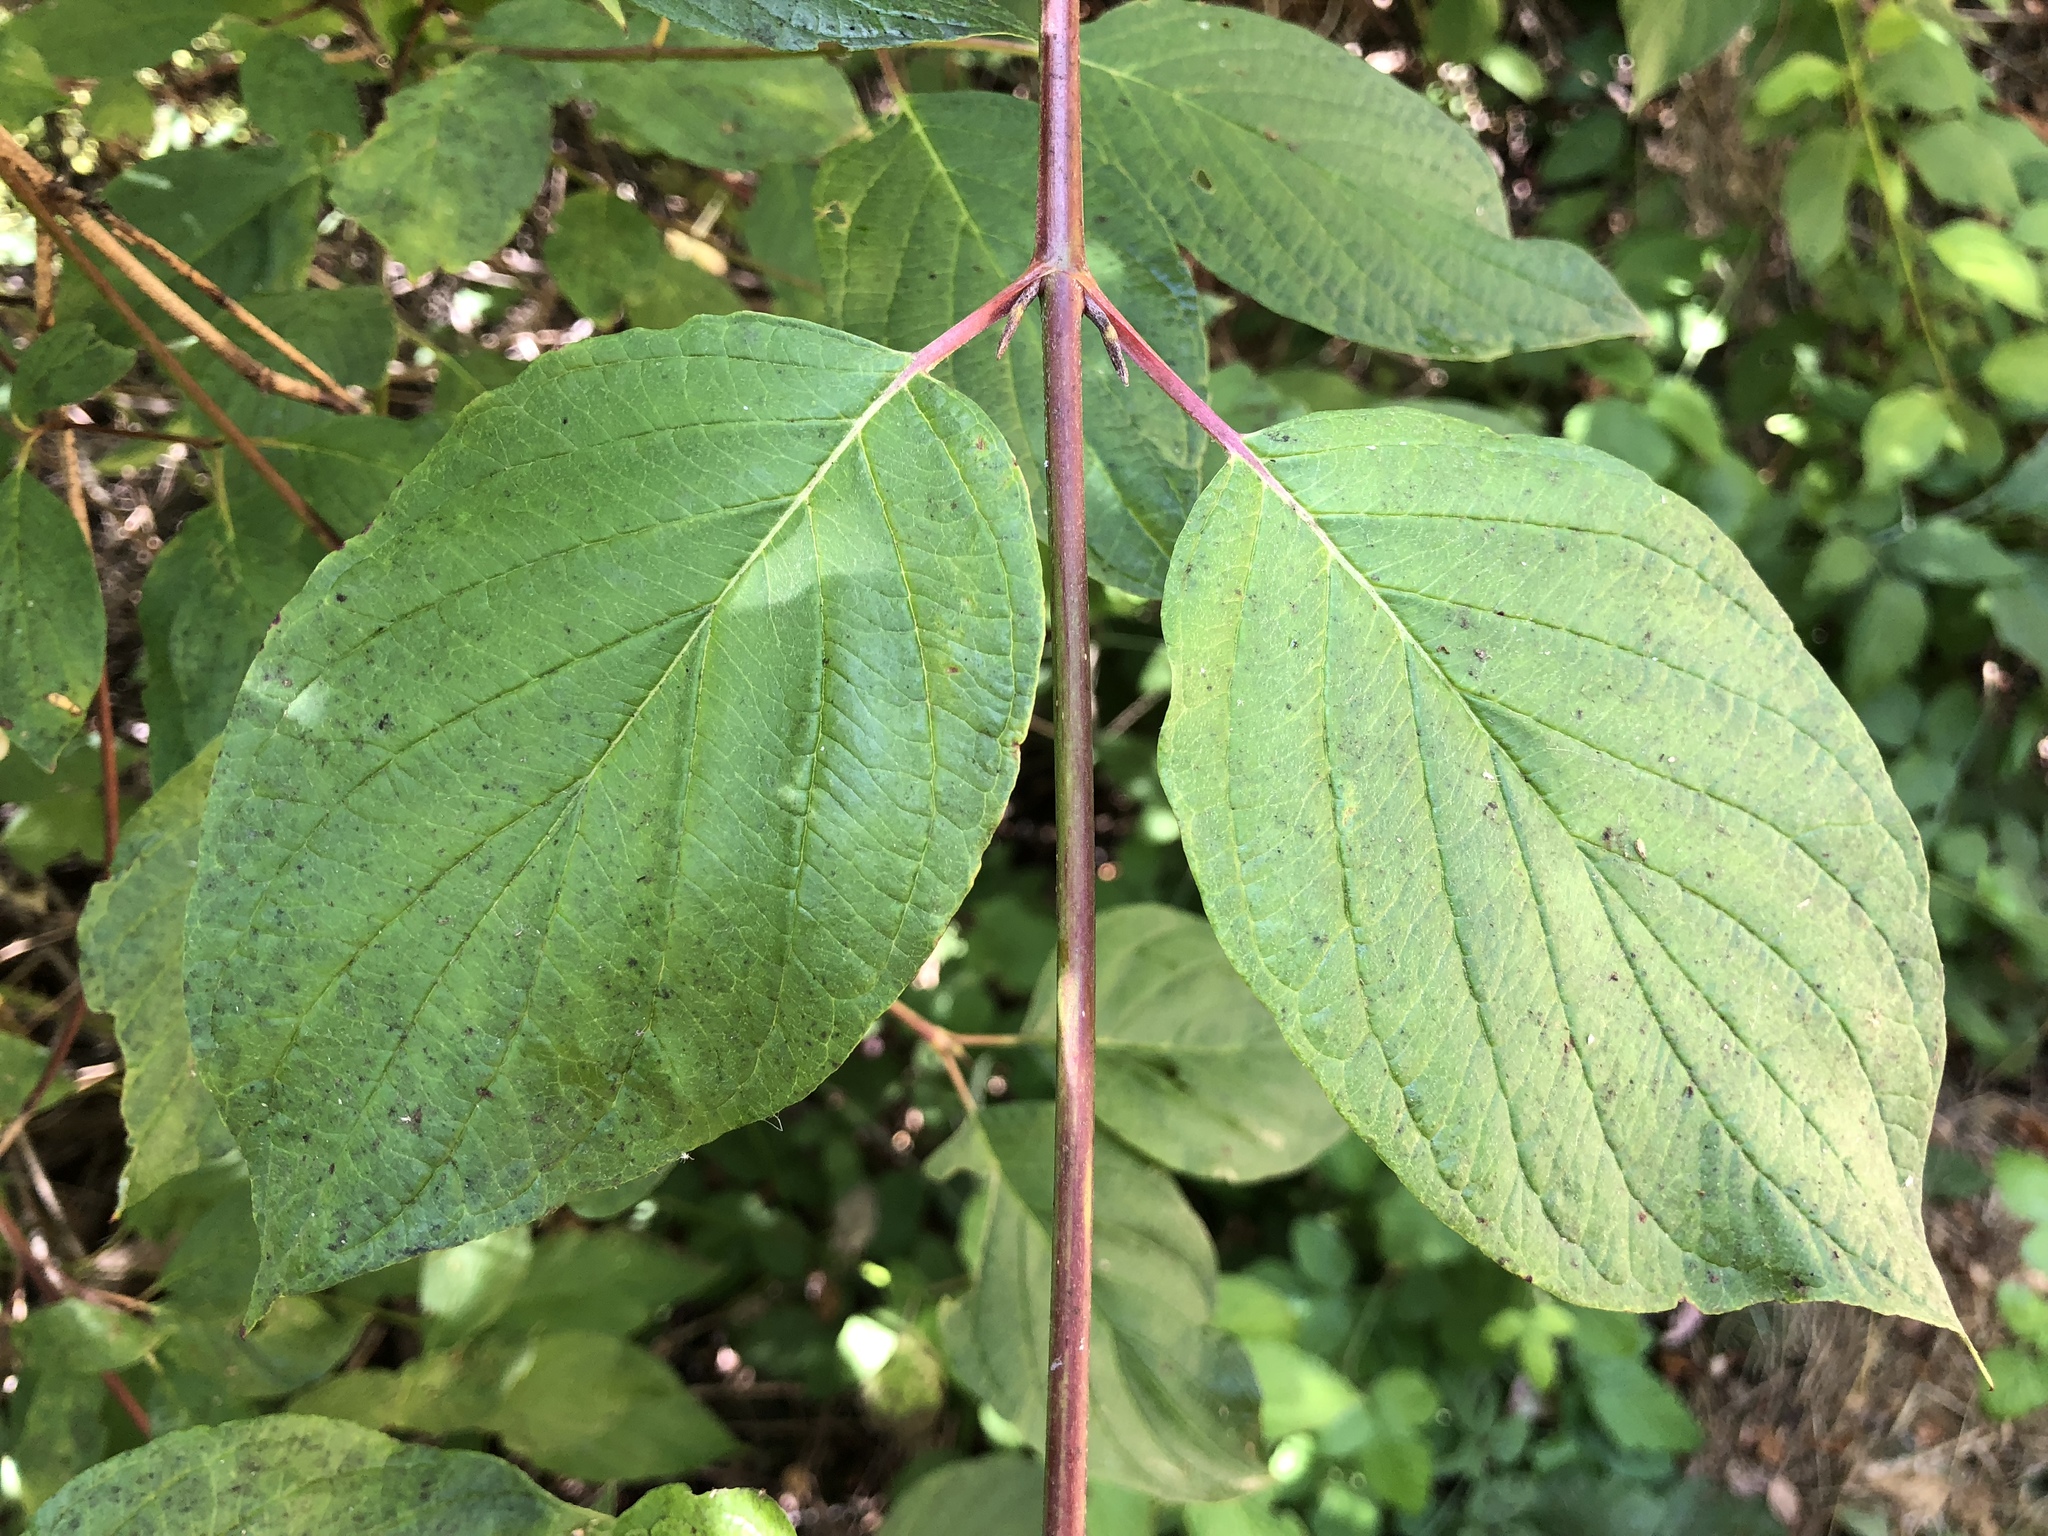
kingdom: Plantae
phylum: Tracheophyta
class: Magnoliopsida
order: Cornales
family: Cornaceae
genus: Cornus
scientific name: Cornus sericea
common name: Red-osier dogwood
